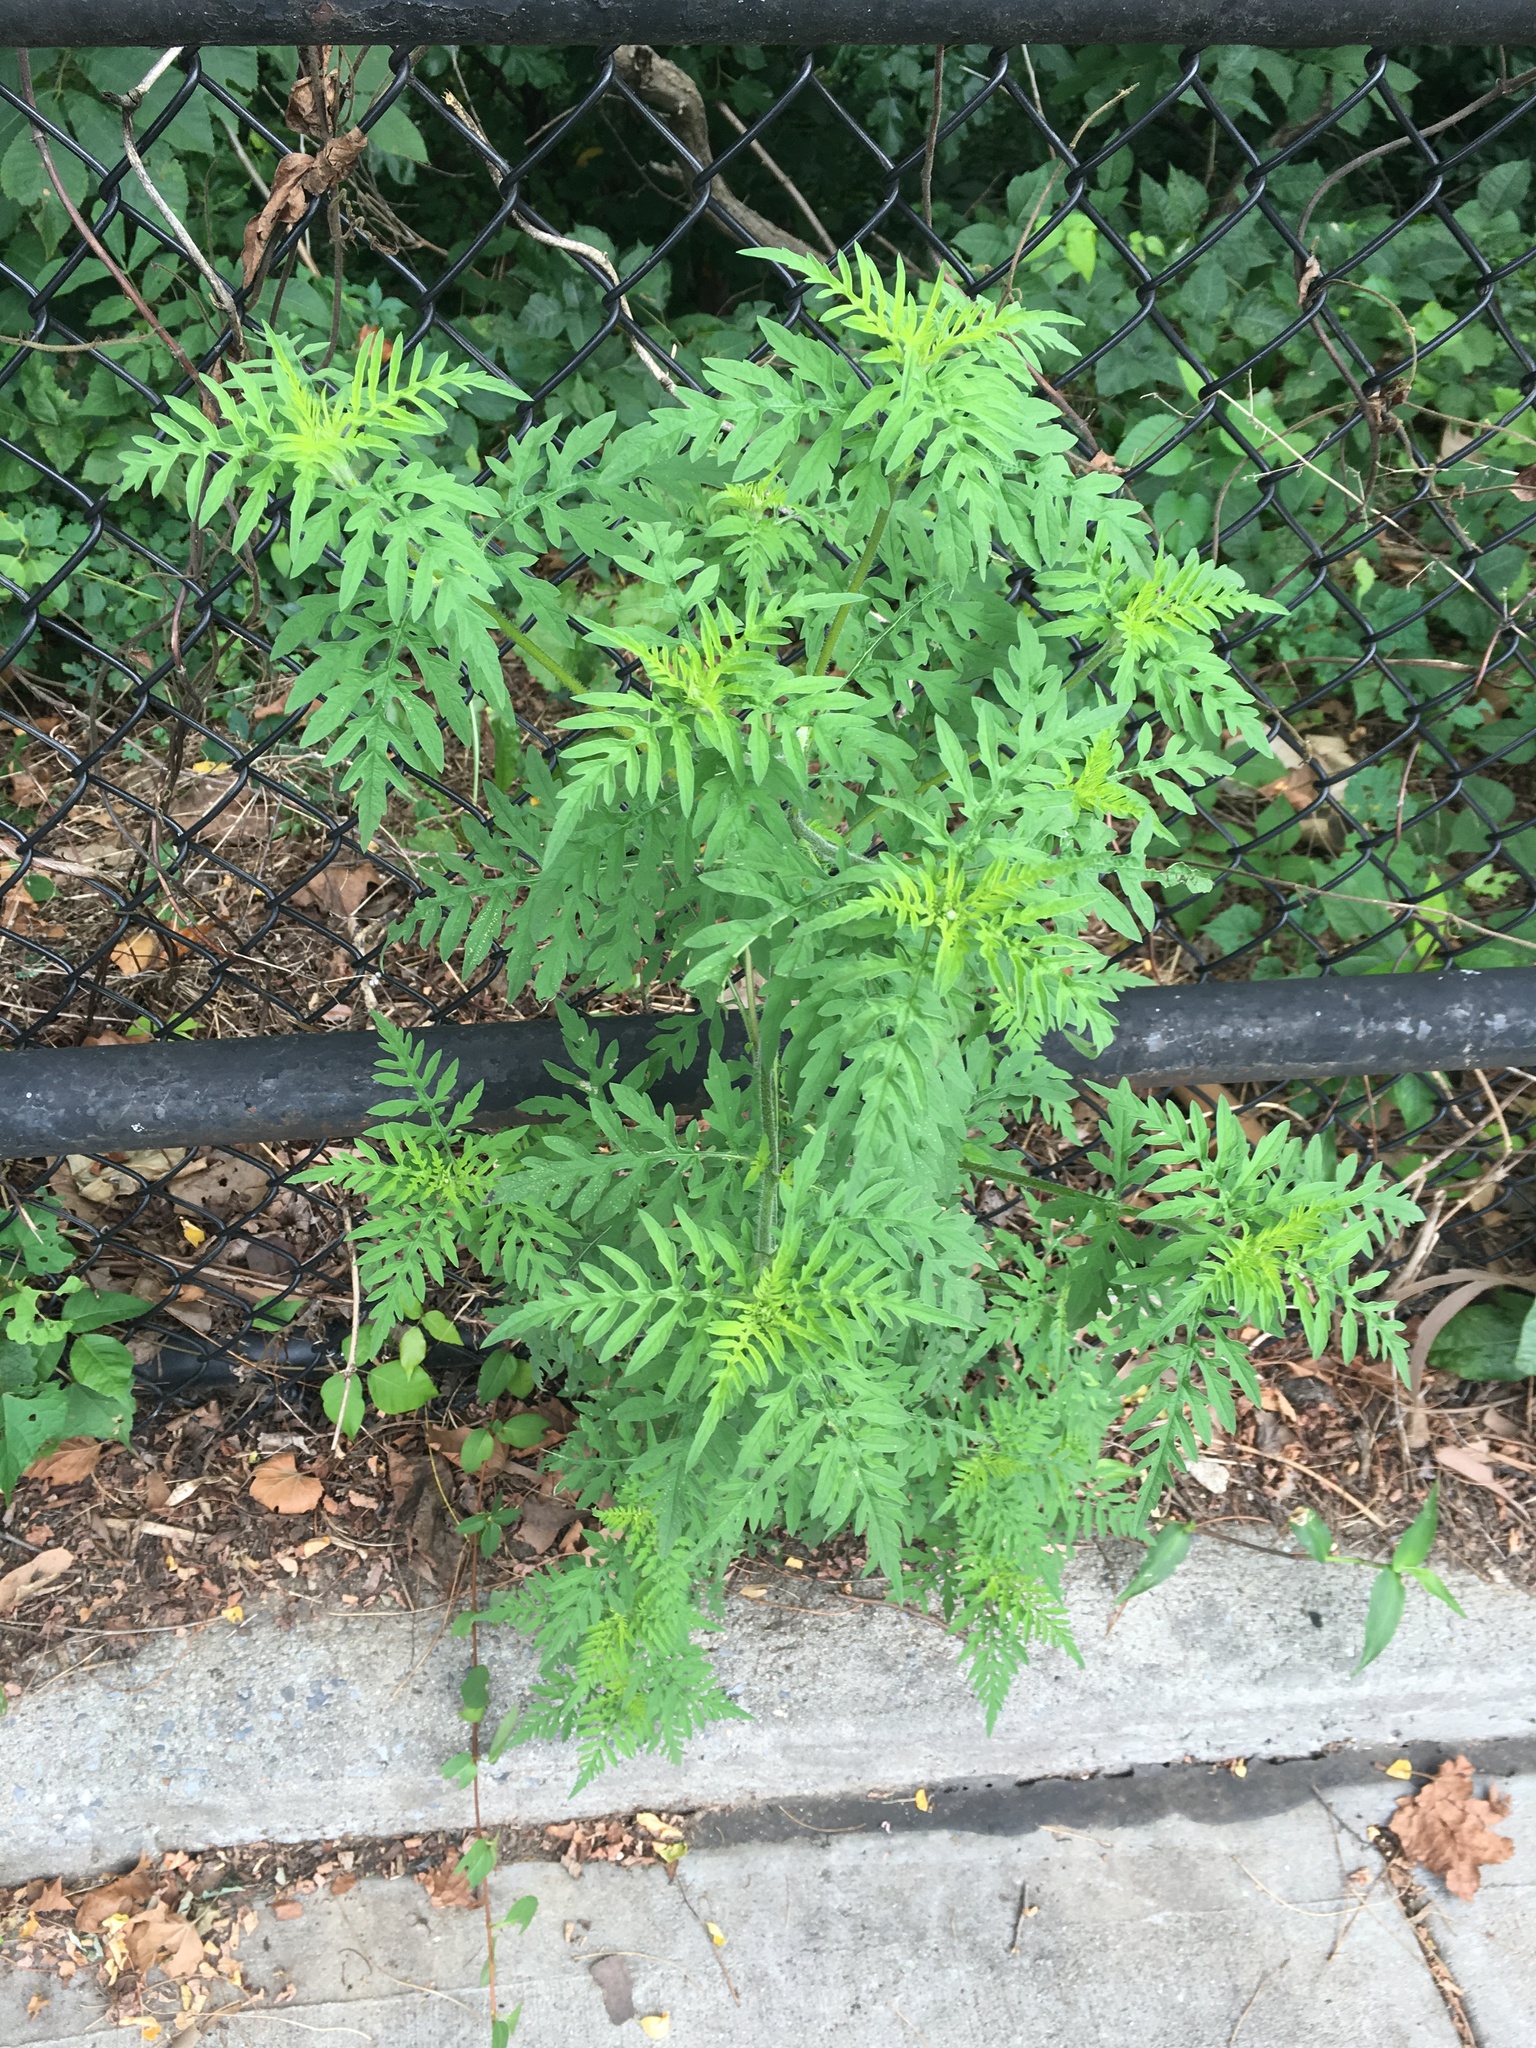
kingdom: Plantae
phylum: Tracheophyta
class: Magnoliopsida
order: Asterales
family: Asteraceae
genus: Ambrosia
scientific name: Ambrosia artemisiifolia
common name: Annual ragweed
